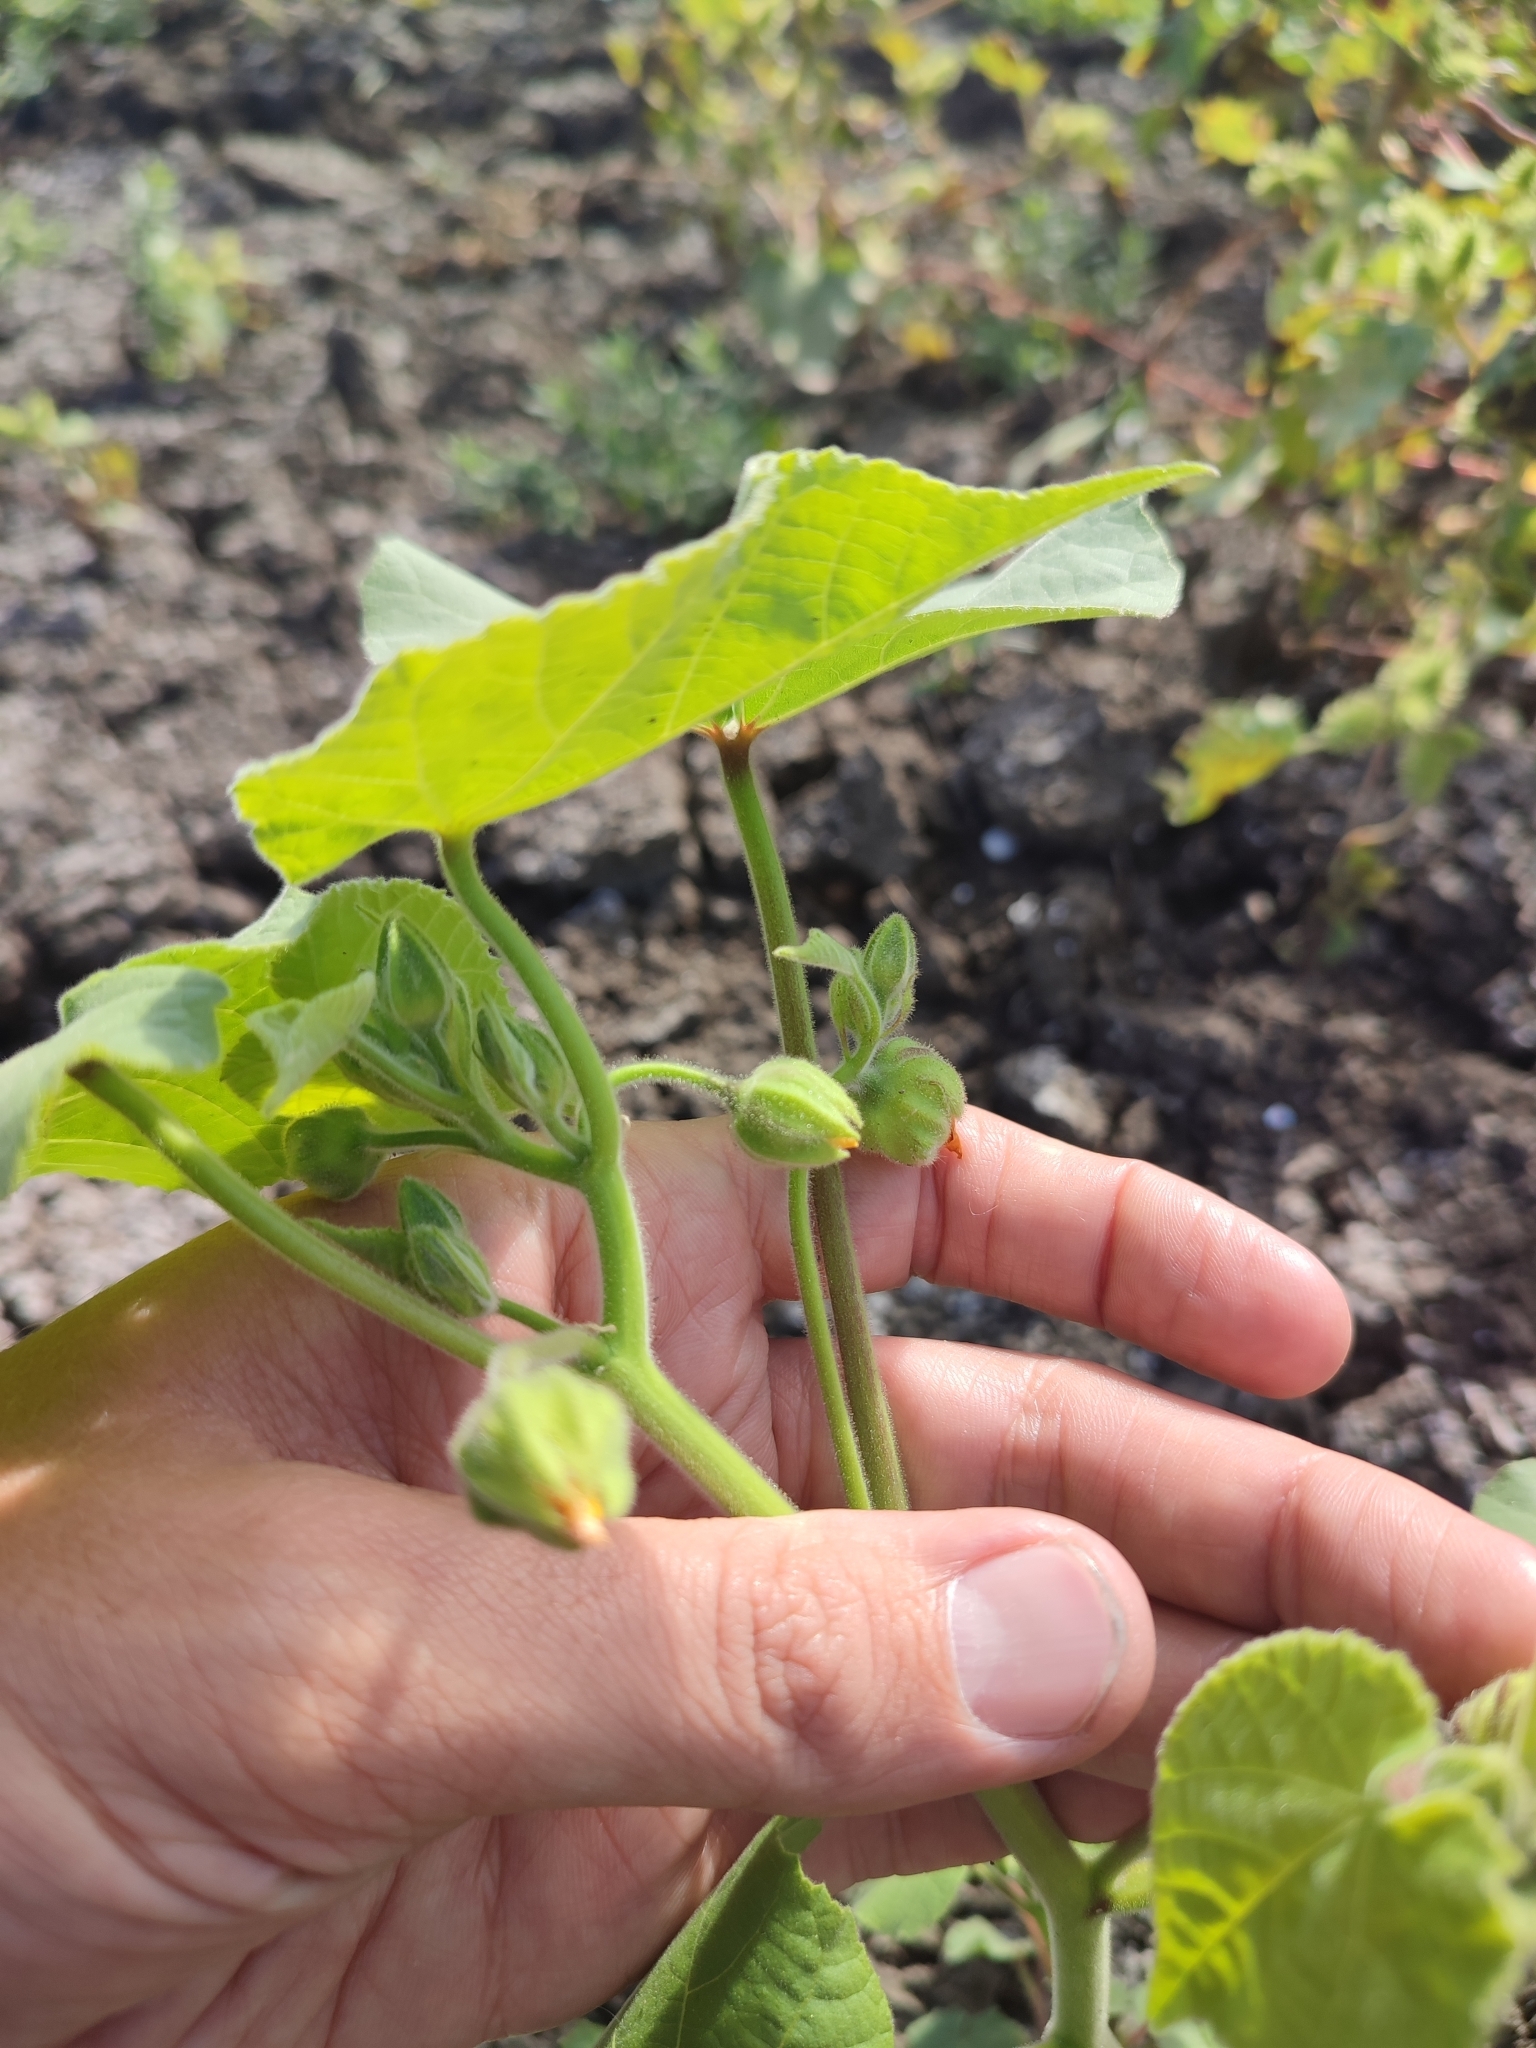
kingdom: Plantae
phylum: Tracheophyta
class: Magnoliopsida
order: Malvales
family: Malvaceae
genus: Abutilon
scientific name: Abutilon theophrasti
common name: Velvetleaf
